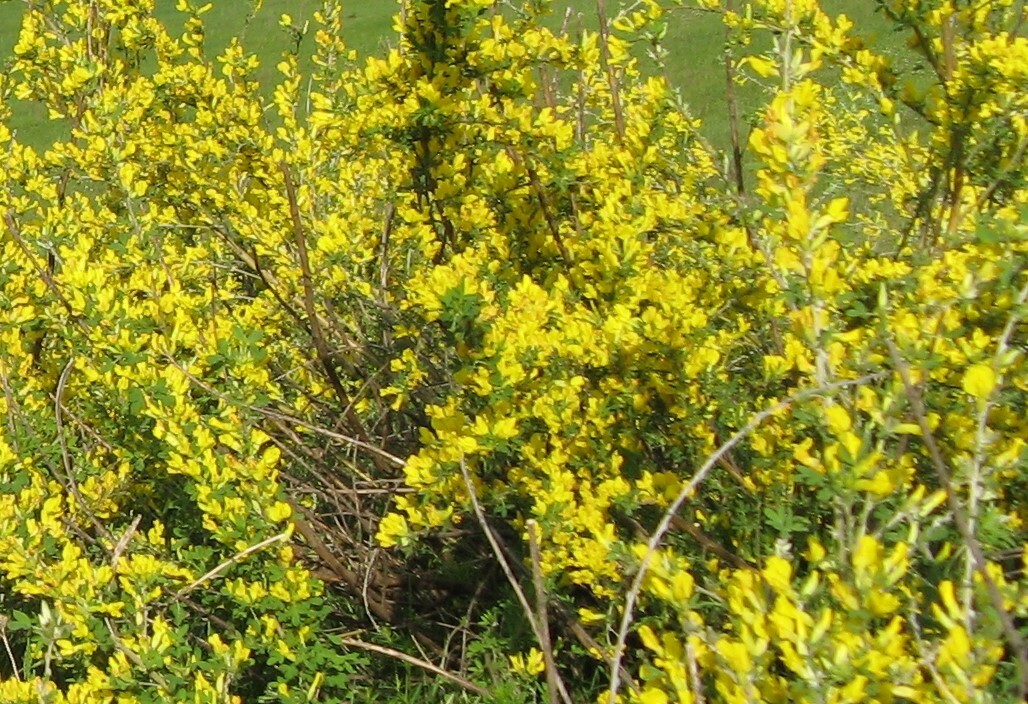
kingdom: Plantae
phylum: Tracheophyta
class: Magnoliopsida
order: Fabales
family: Fabaceae
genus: Chamaecytisus
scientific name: Chamaecytisus ruthenicus
